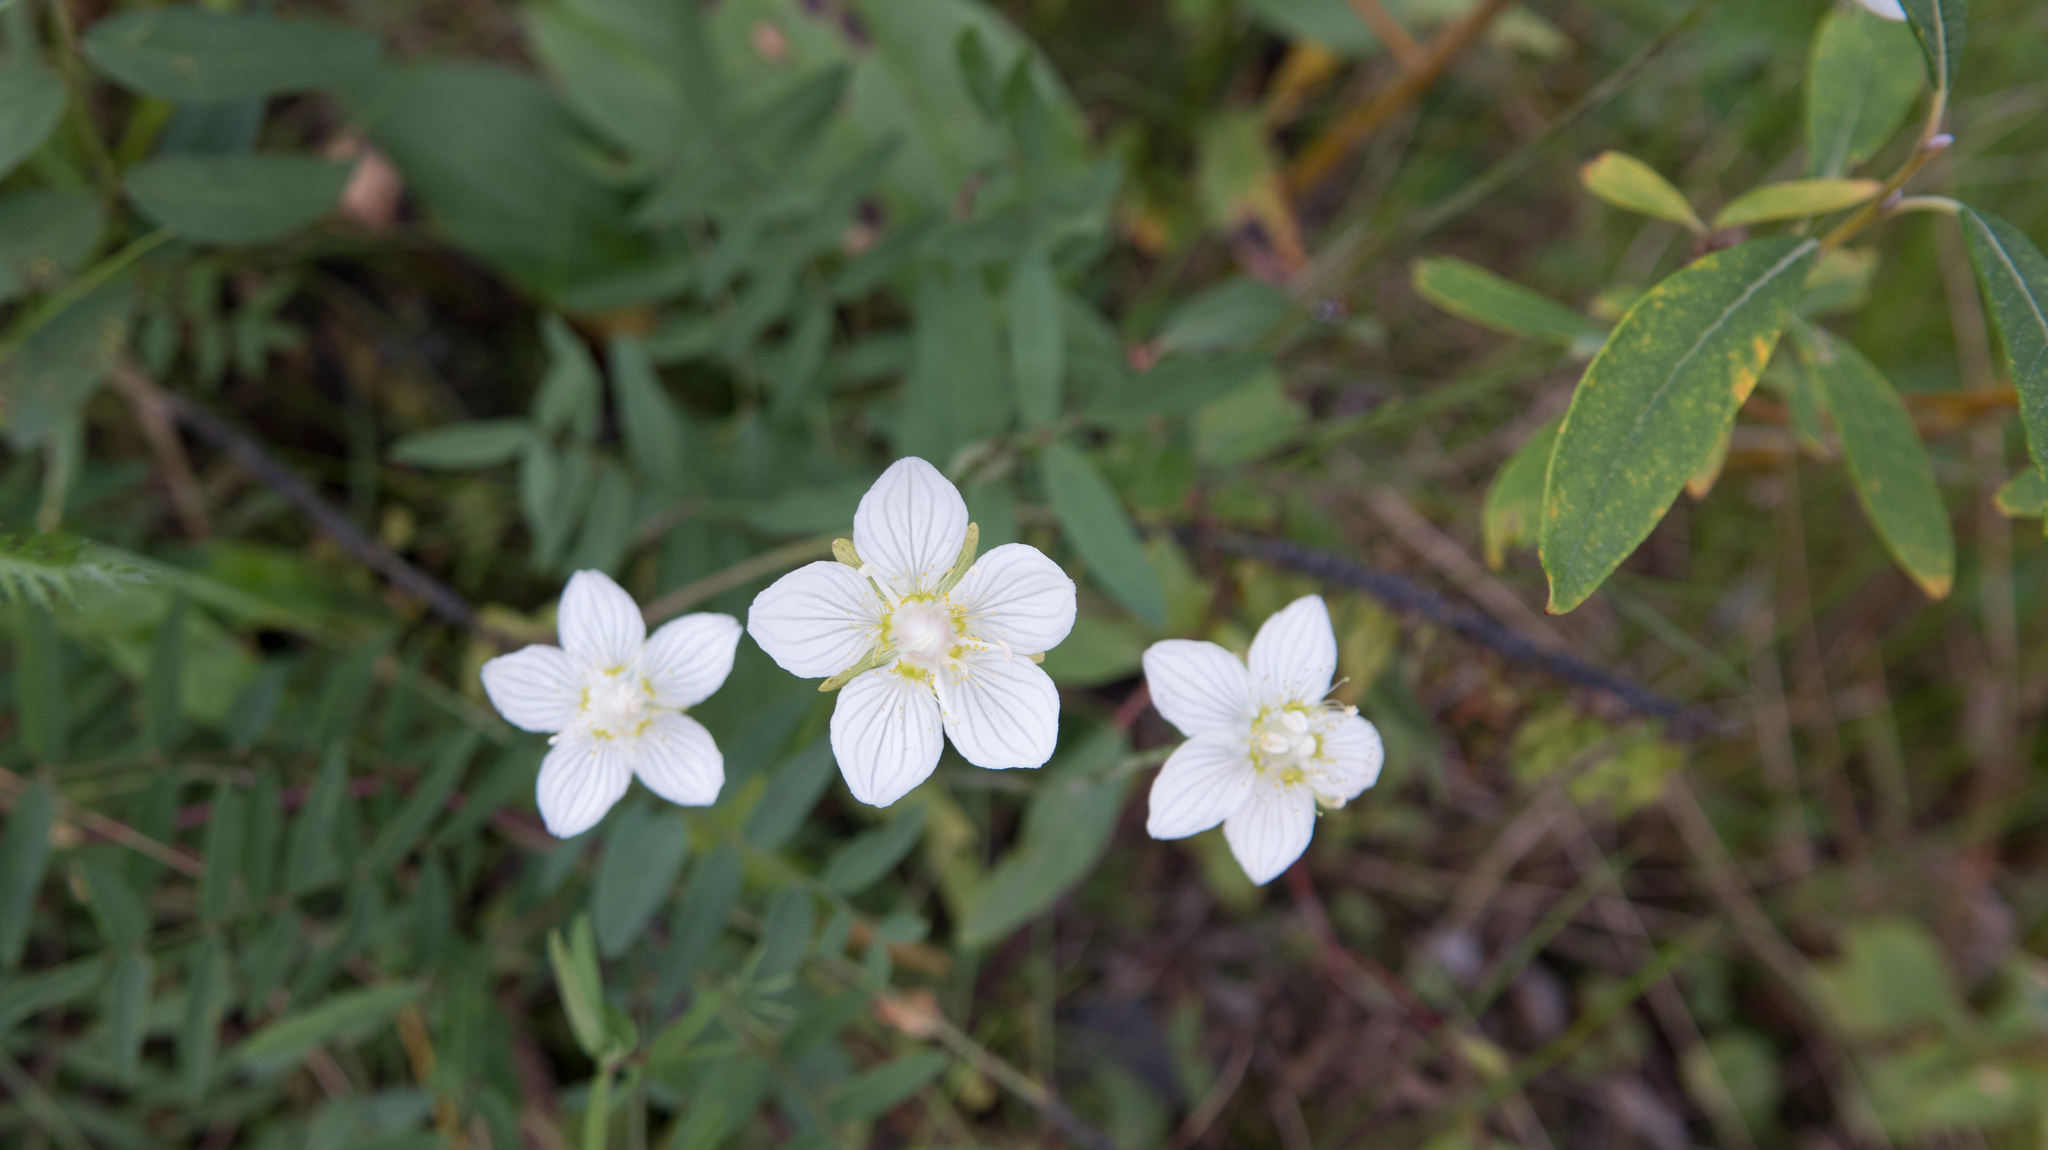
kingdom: Plantae
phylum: Tracheophyta
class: Magnoliopsida
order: Celastrales
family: Parnassiaceae
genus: Parnassia
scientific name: Parnassia palustris
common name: Grass-of-parnassus
